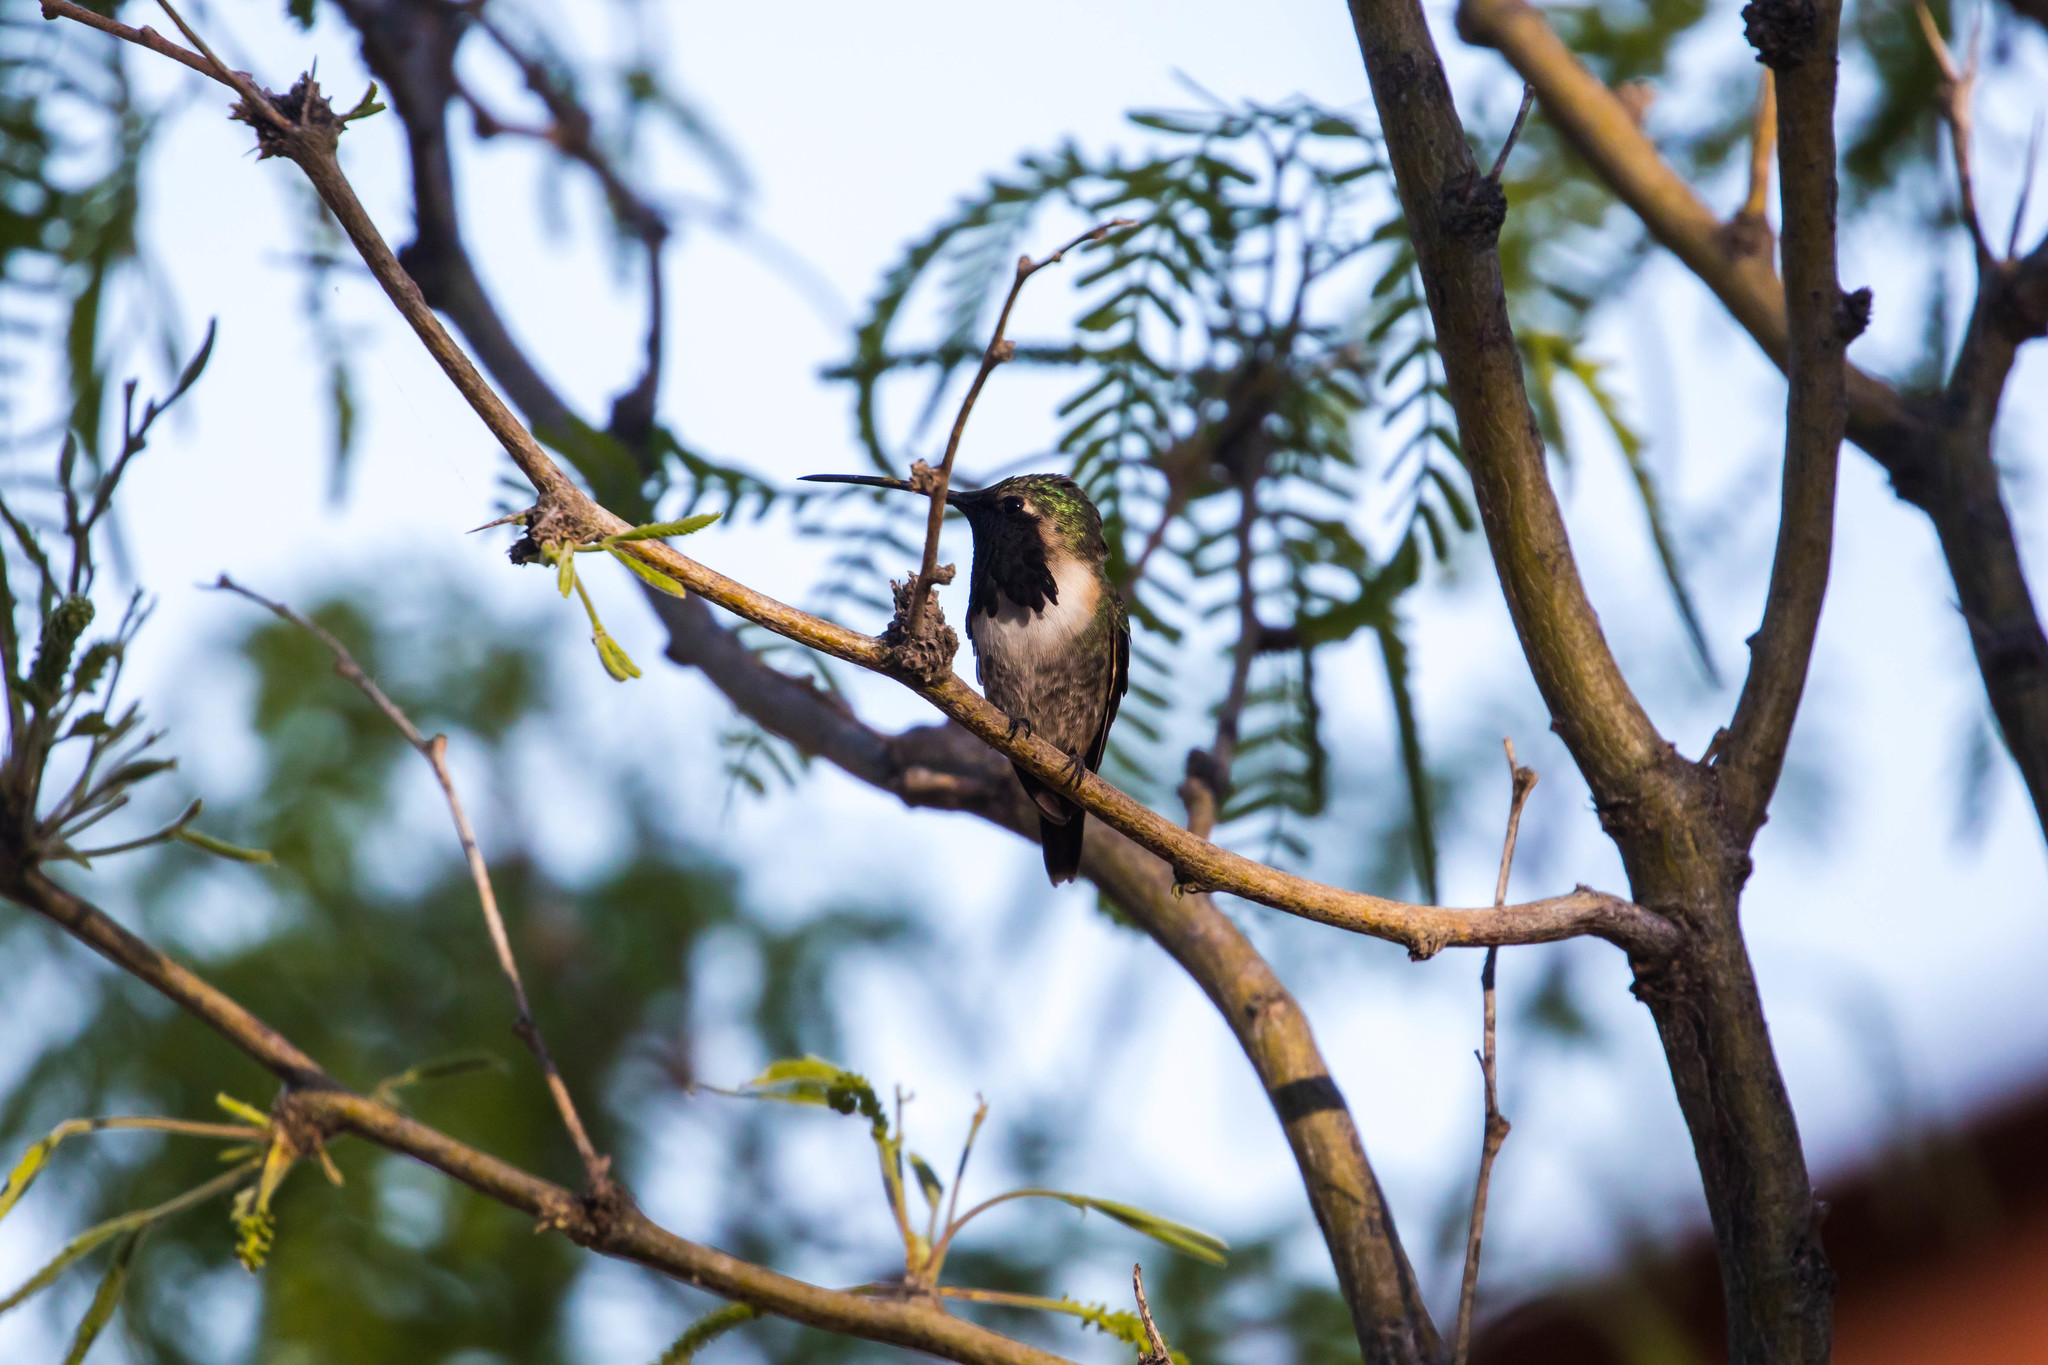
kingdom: Animalia
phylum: Chordata
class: Aves
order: Apodiformes
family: Trochilidae
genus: Calothorax
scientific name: Calothorax lucifer
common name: Lucifer sheartail
